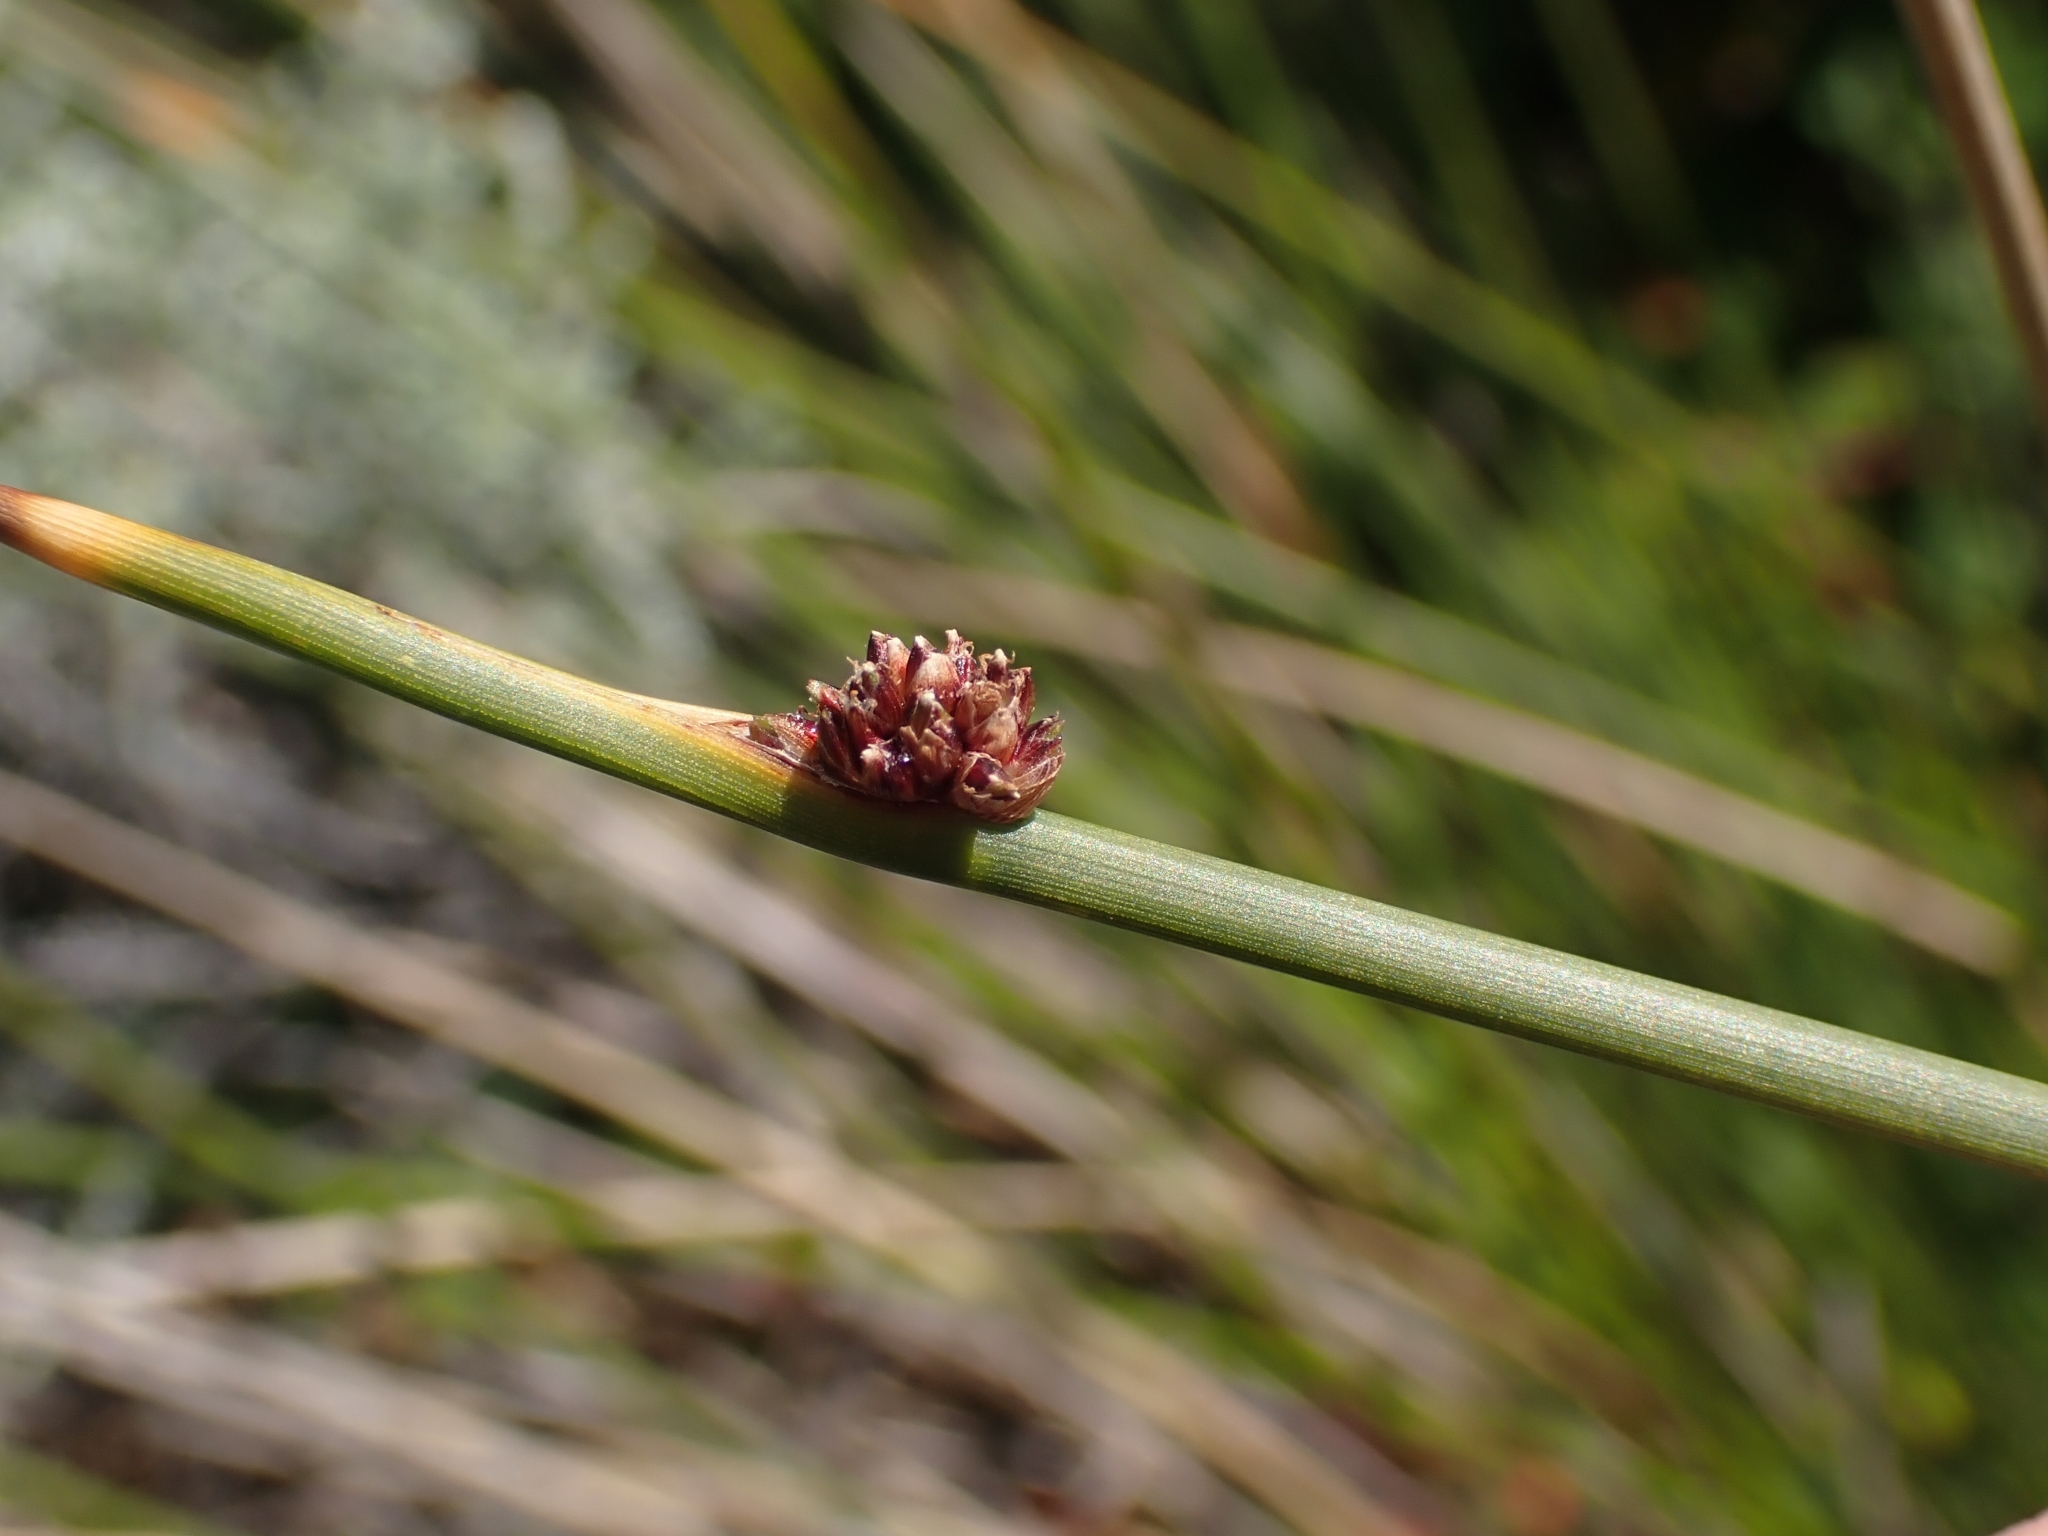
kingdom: Plantae
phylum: Tracheophyta
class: Liliopsida
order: Poales
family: Restionaceae
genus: Apodasmia
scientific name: Apodasmia similis
